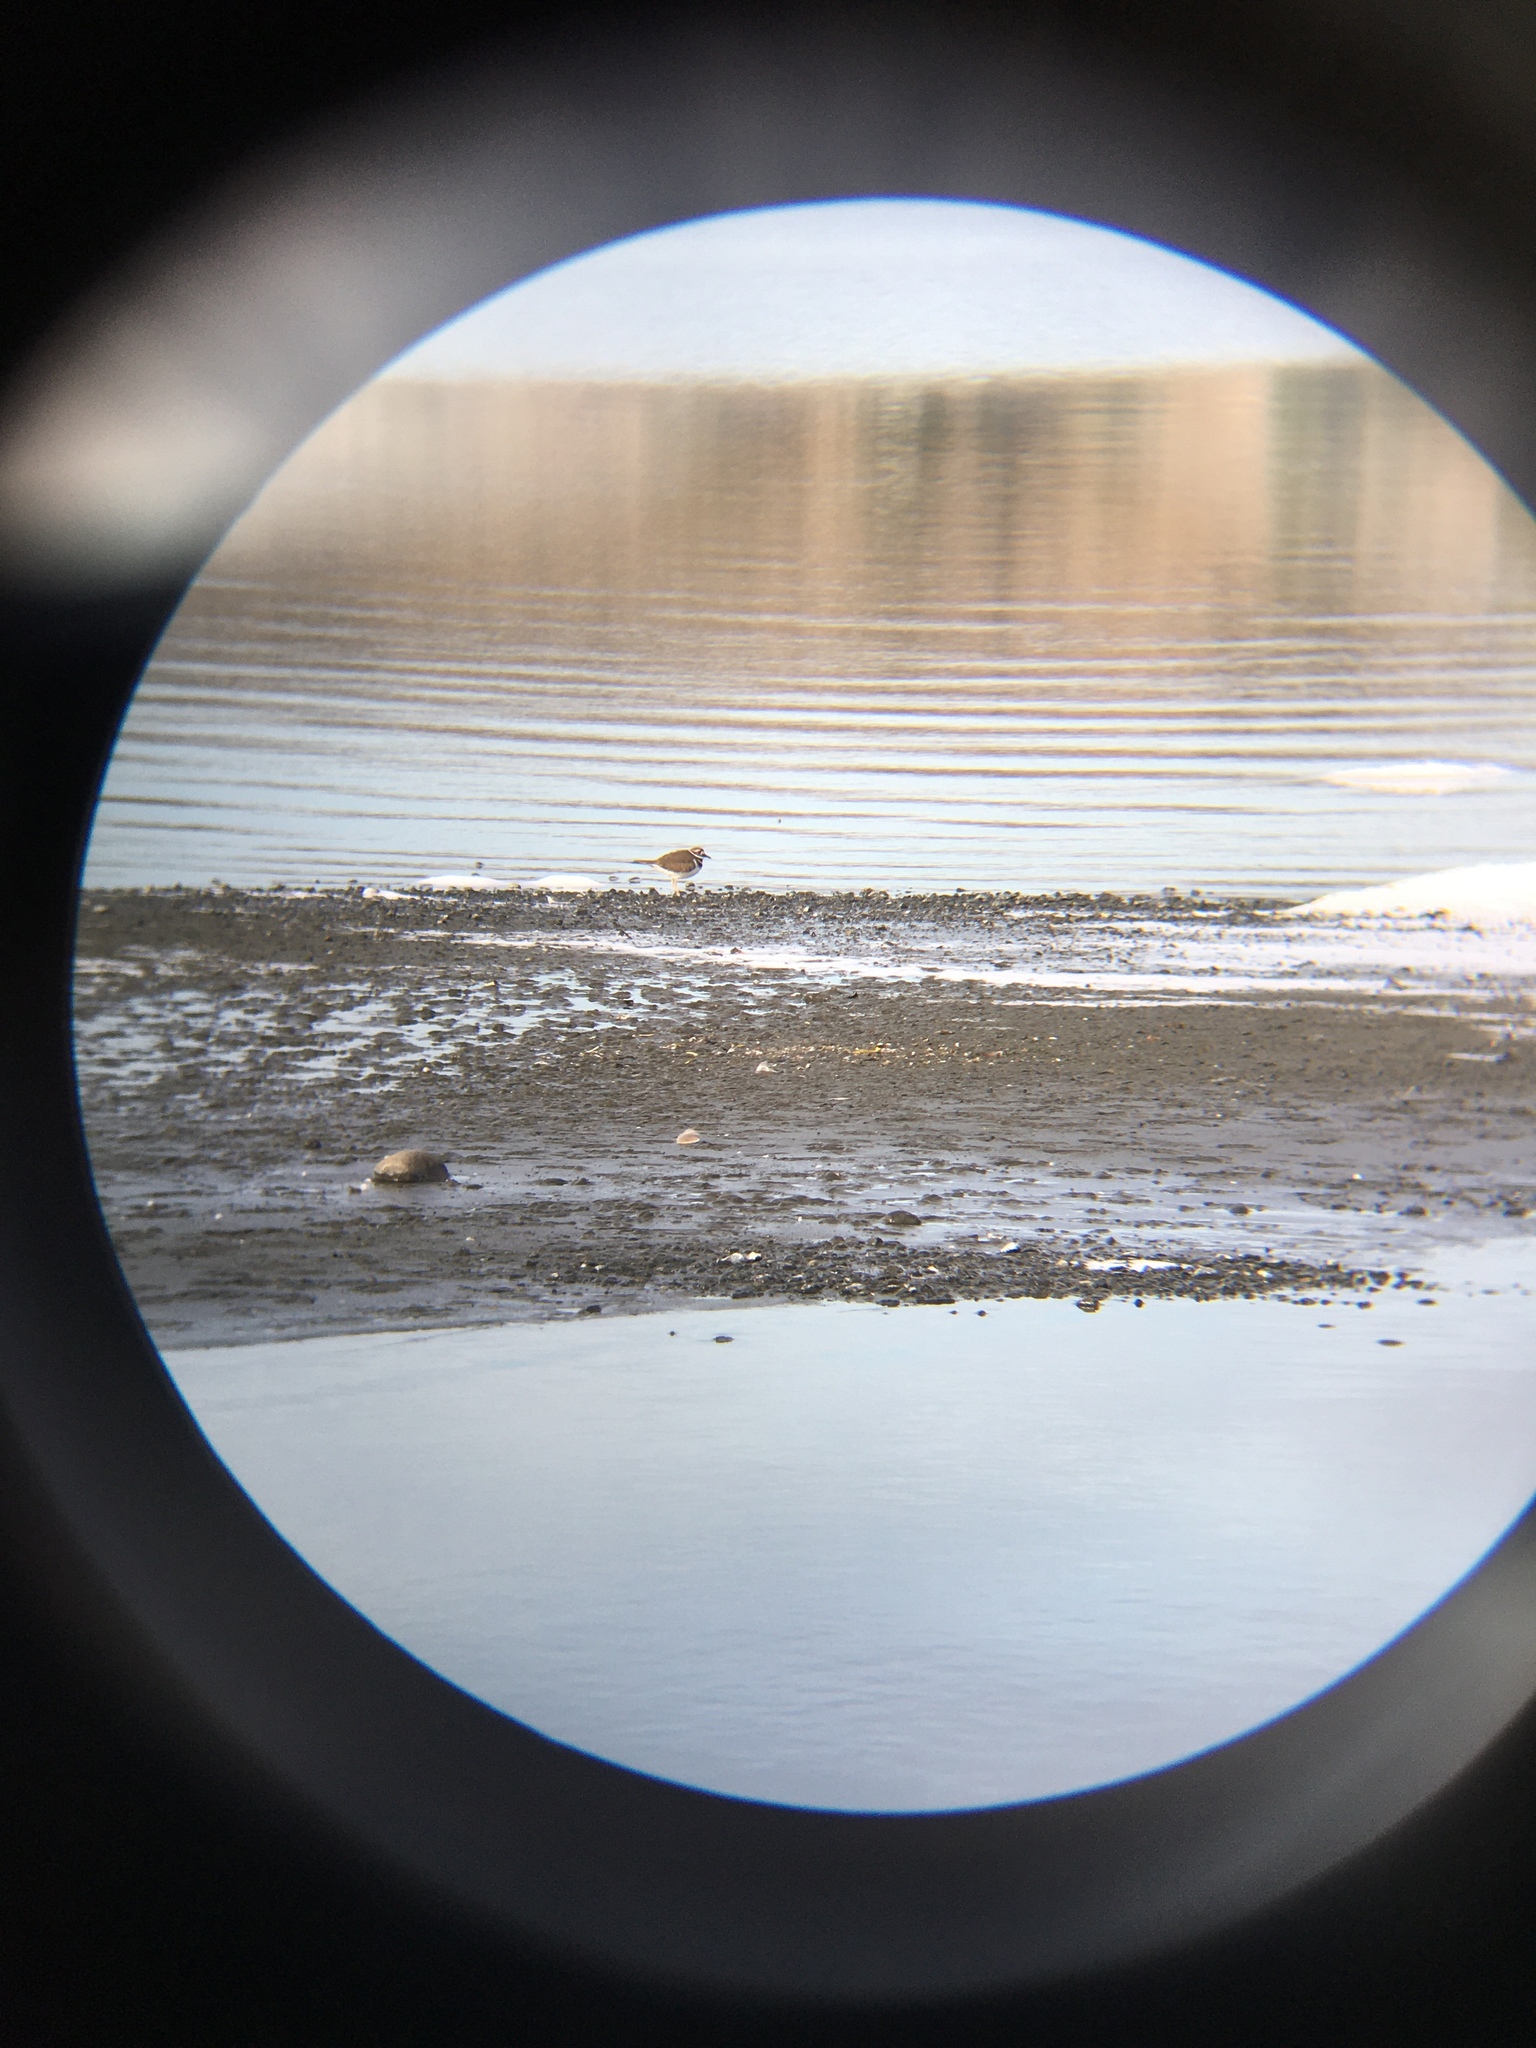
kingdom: Animalia
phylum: Chordata
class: Aves
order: Charadriiformes
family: Charadriidae
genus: Charadrius
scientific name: Charadrius vociferus
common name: Killdeer
